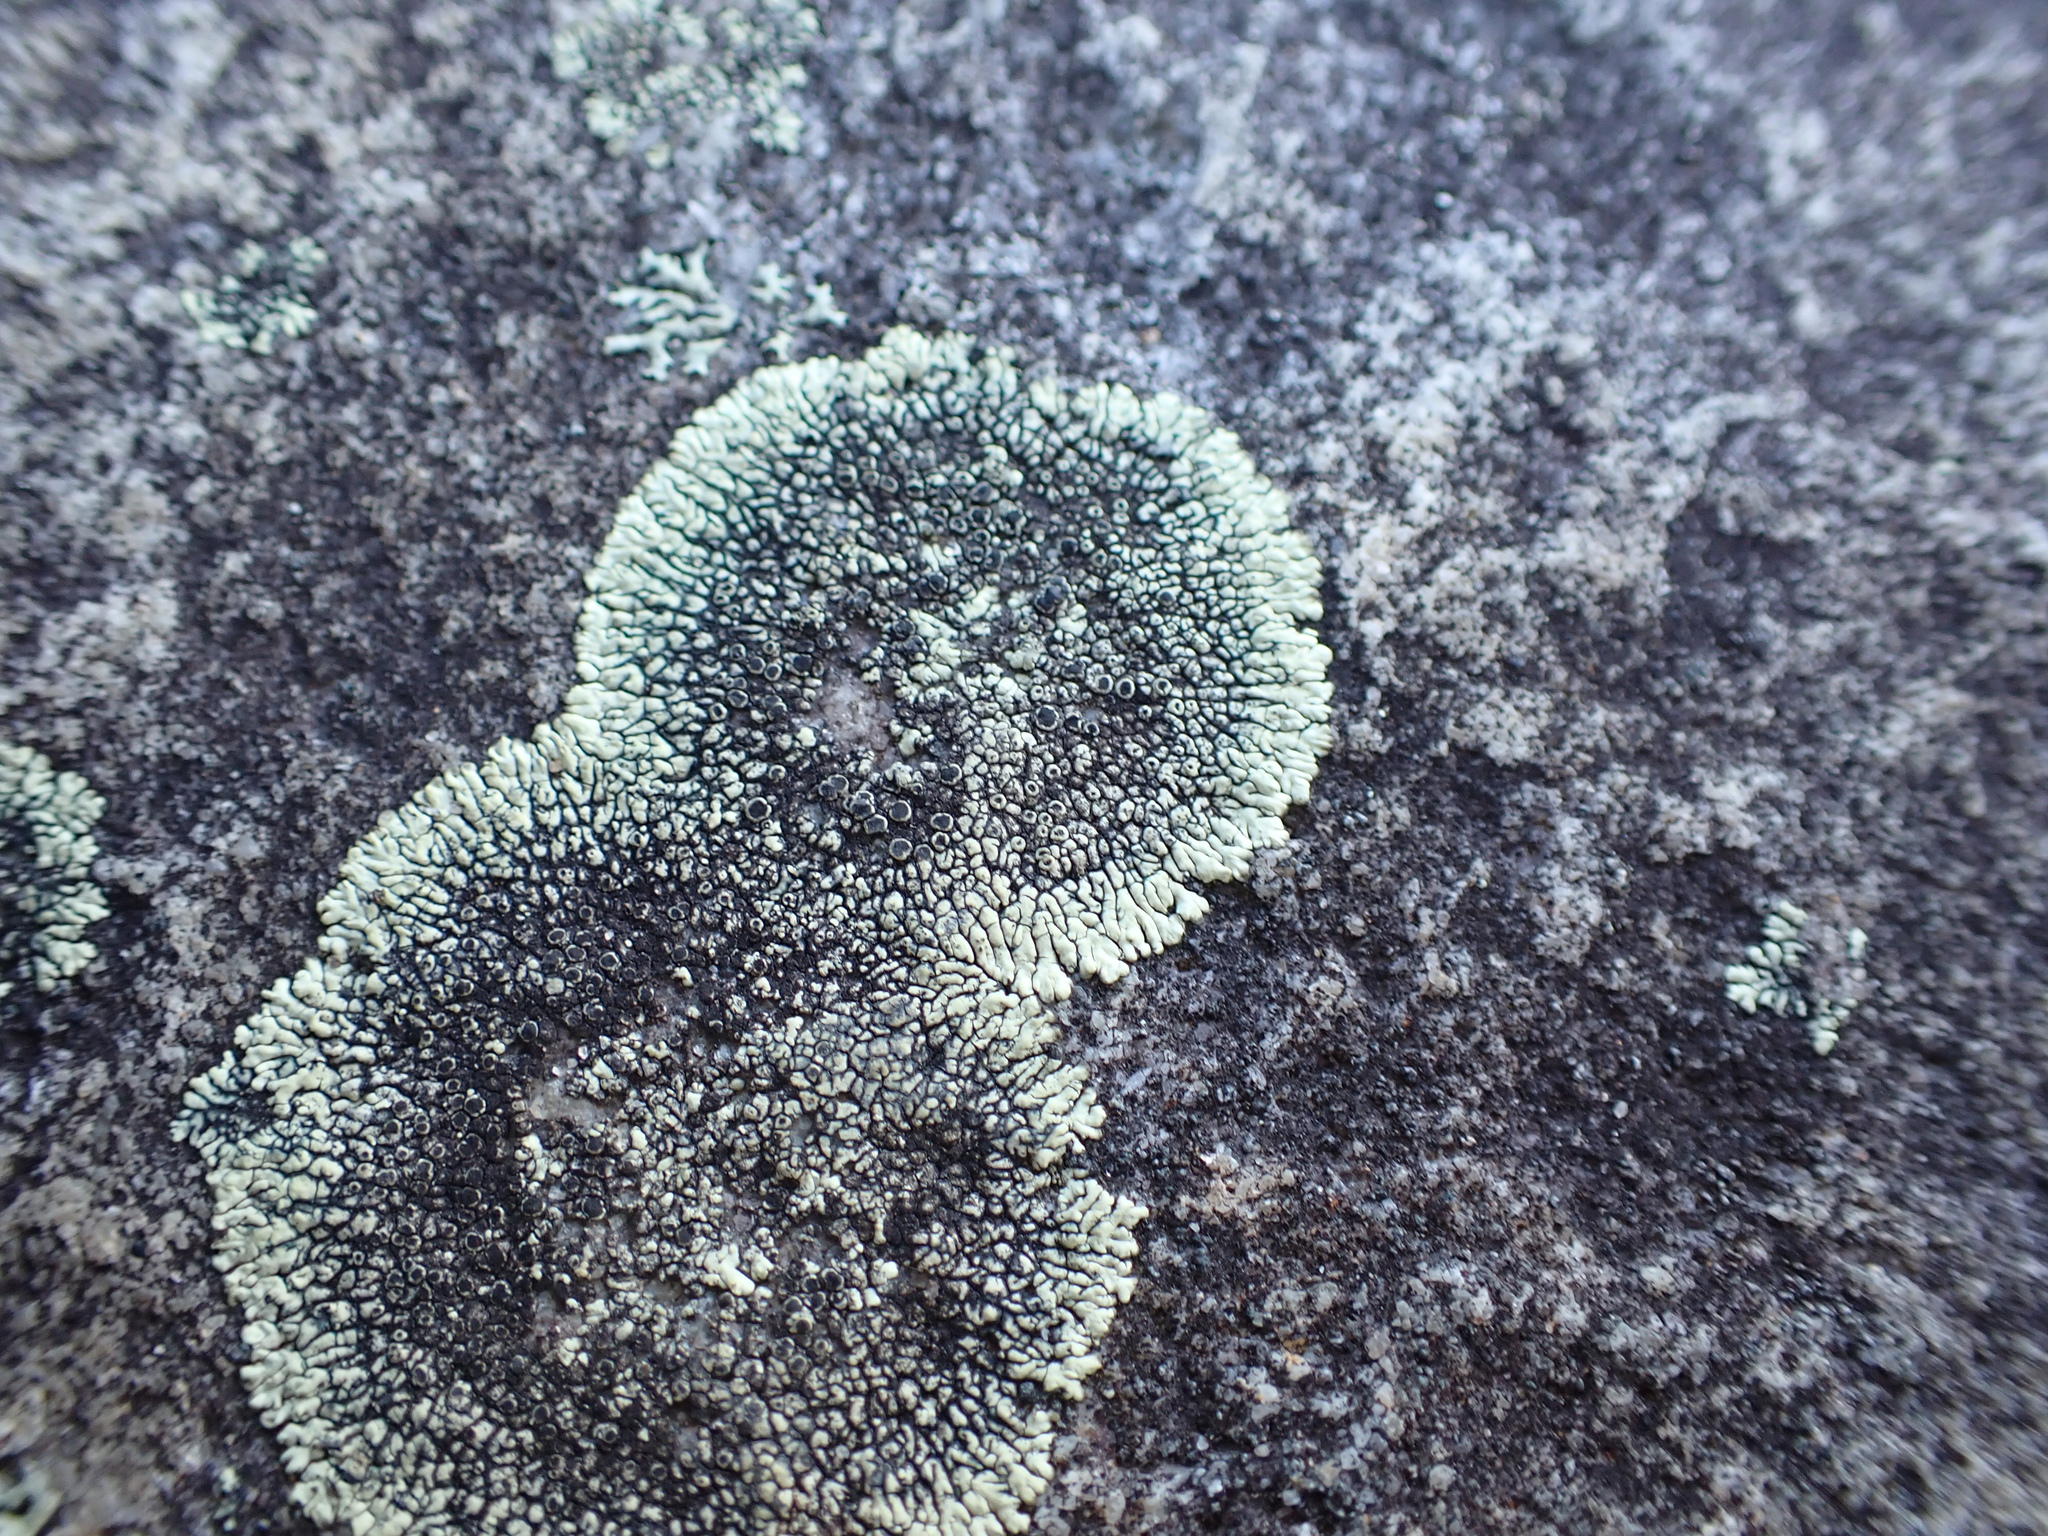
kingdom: Fungi
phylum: Ascomycota
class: Lecanoromycetes
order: Caliciales
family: Caliciaceae
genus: Dimelaena
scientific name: Dimelaena oreina
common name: Golden moonglow lichen
